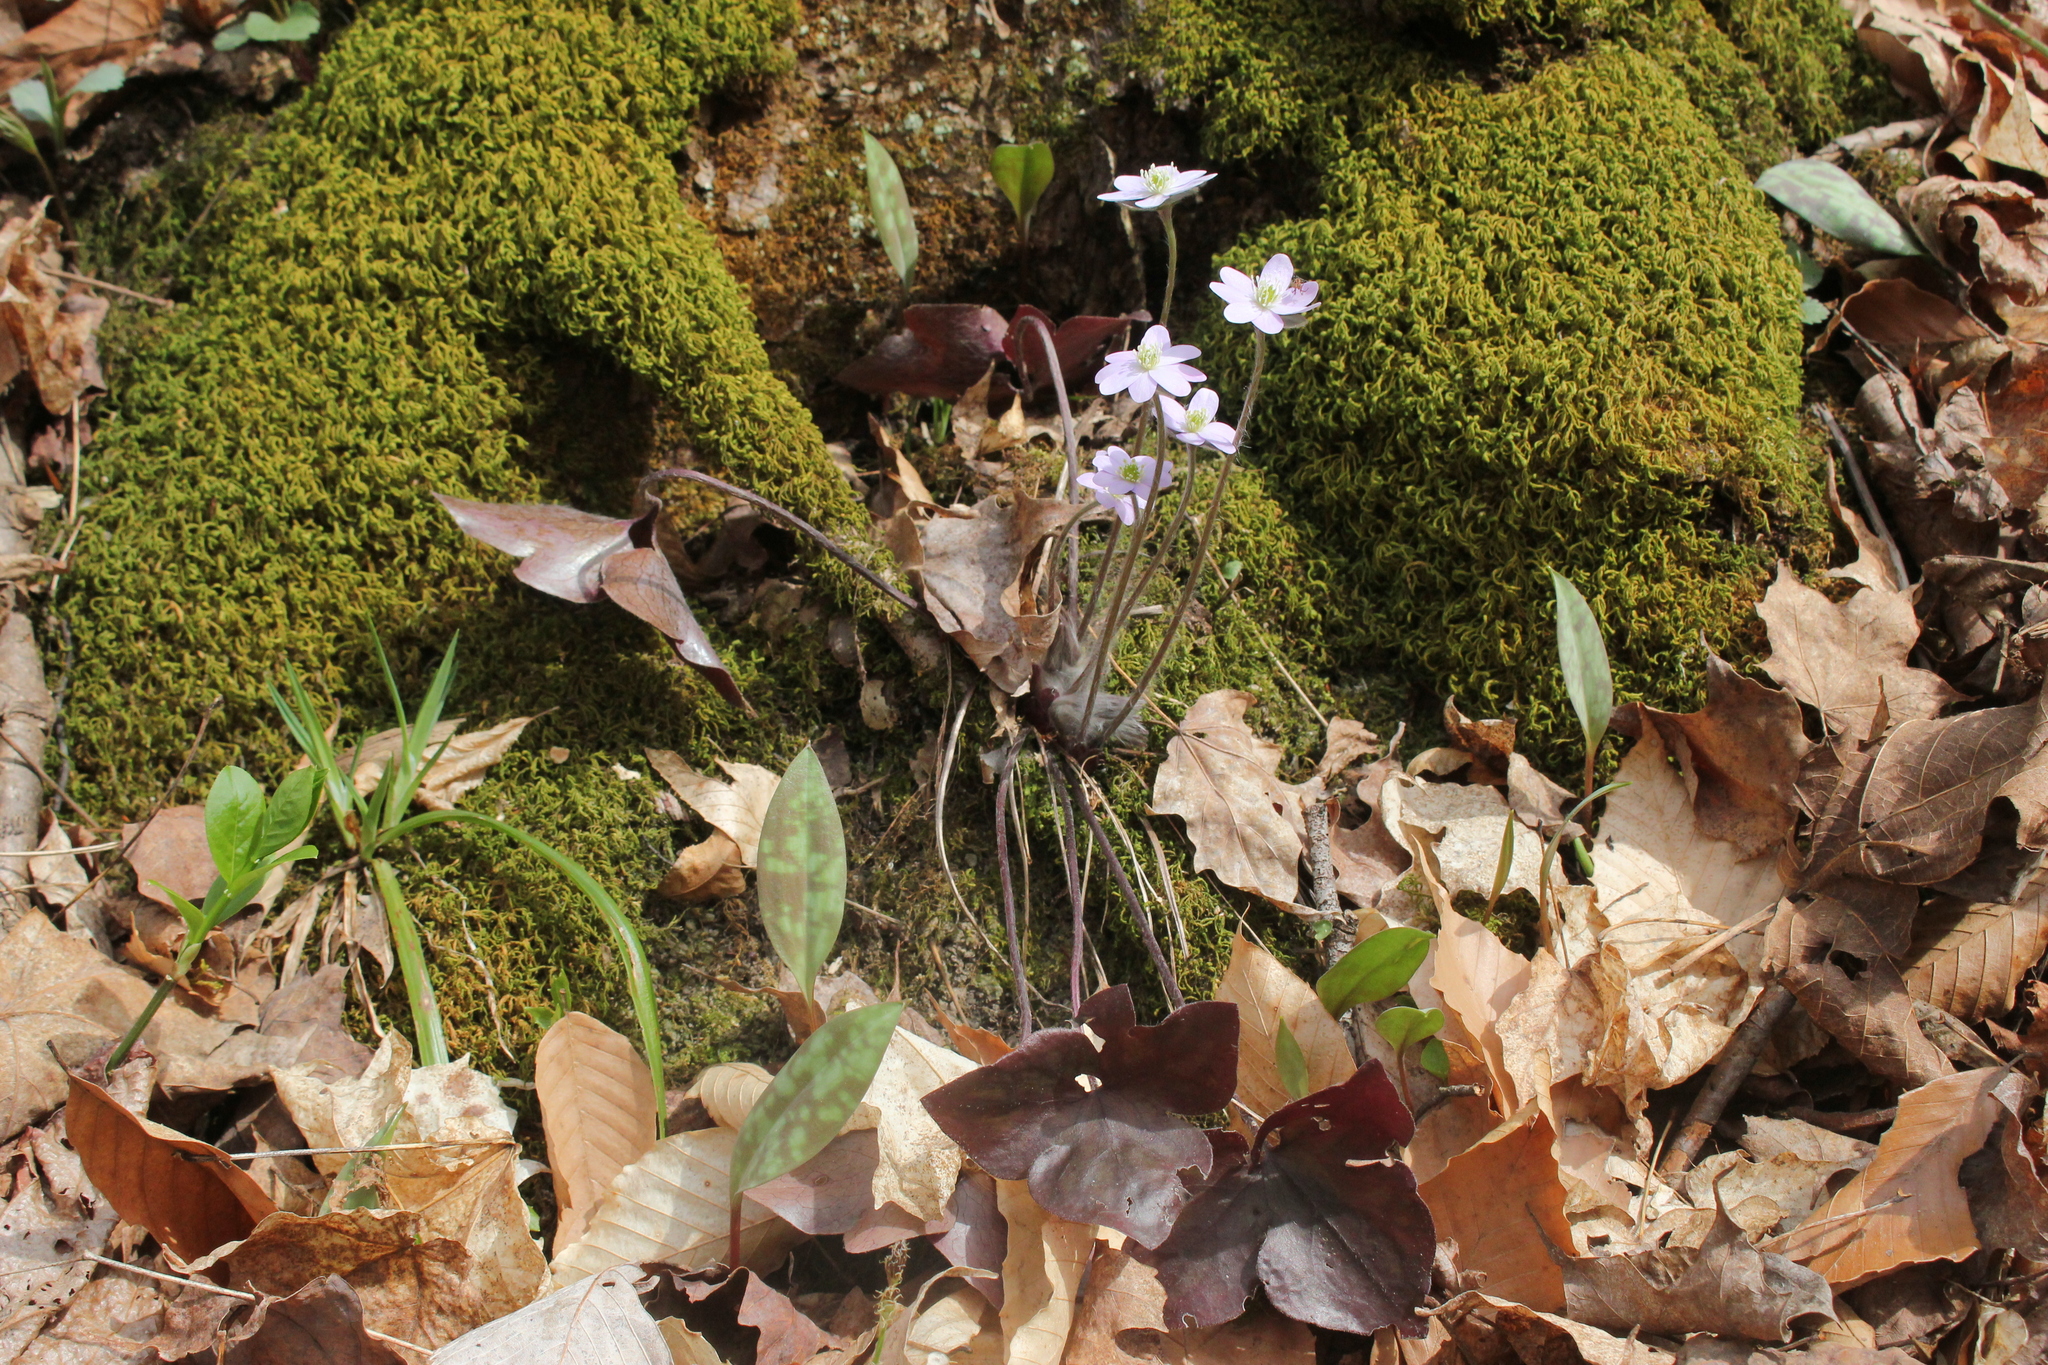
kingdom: Plantae
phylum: Tracheophyta
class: Magnoliopsida
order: Ranunculales
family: Ranunculaceae
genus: Hepatica
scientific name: Hepatica acutiloba
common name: Sharp-lobed hepatica
